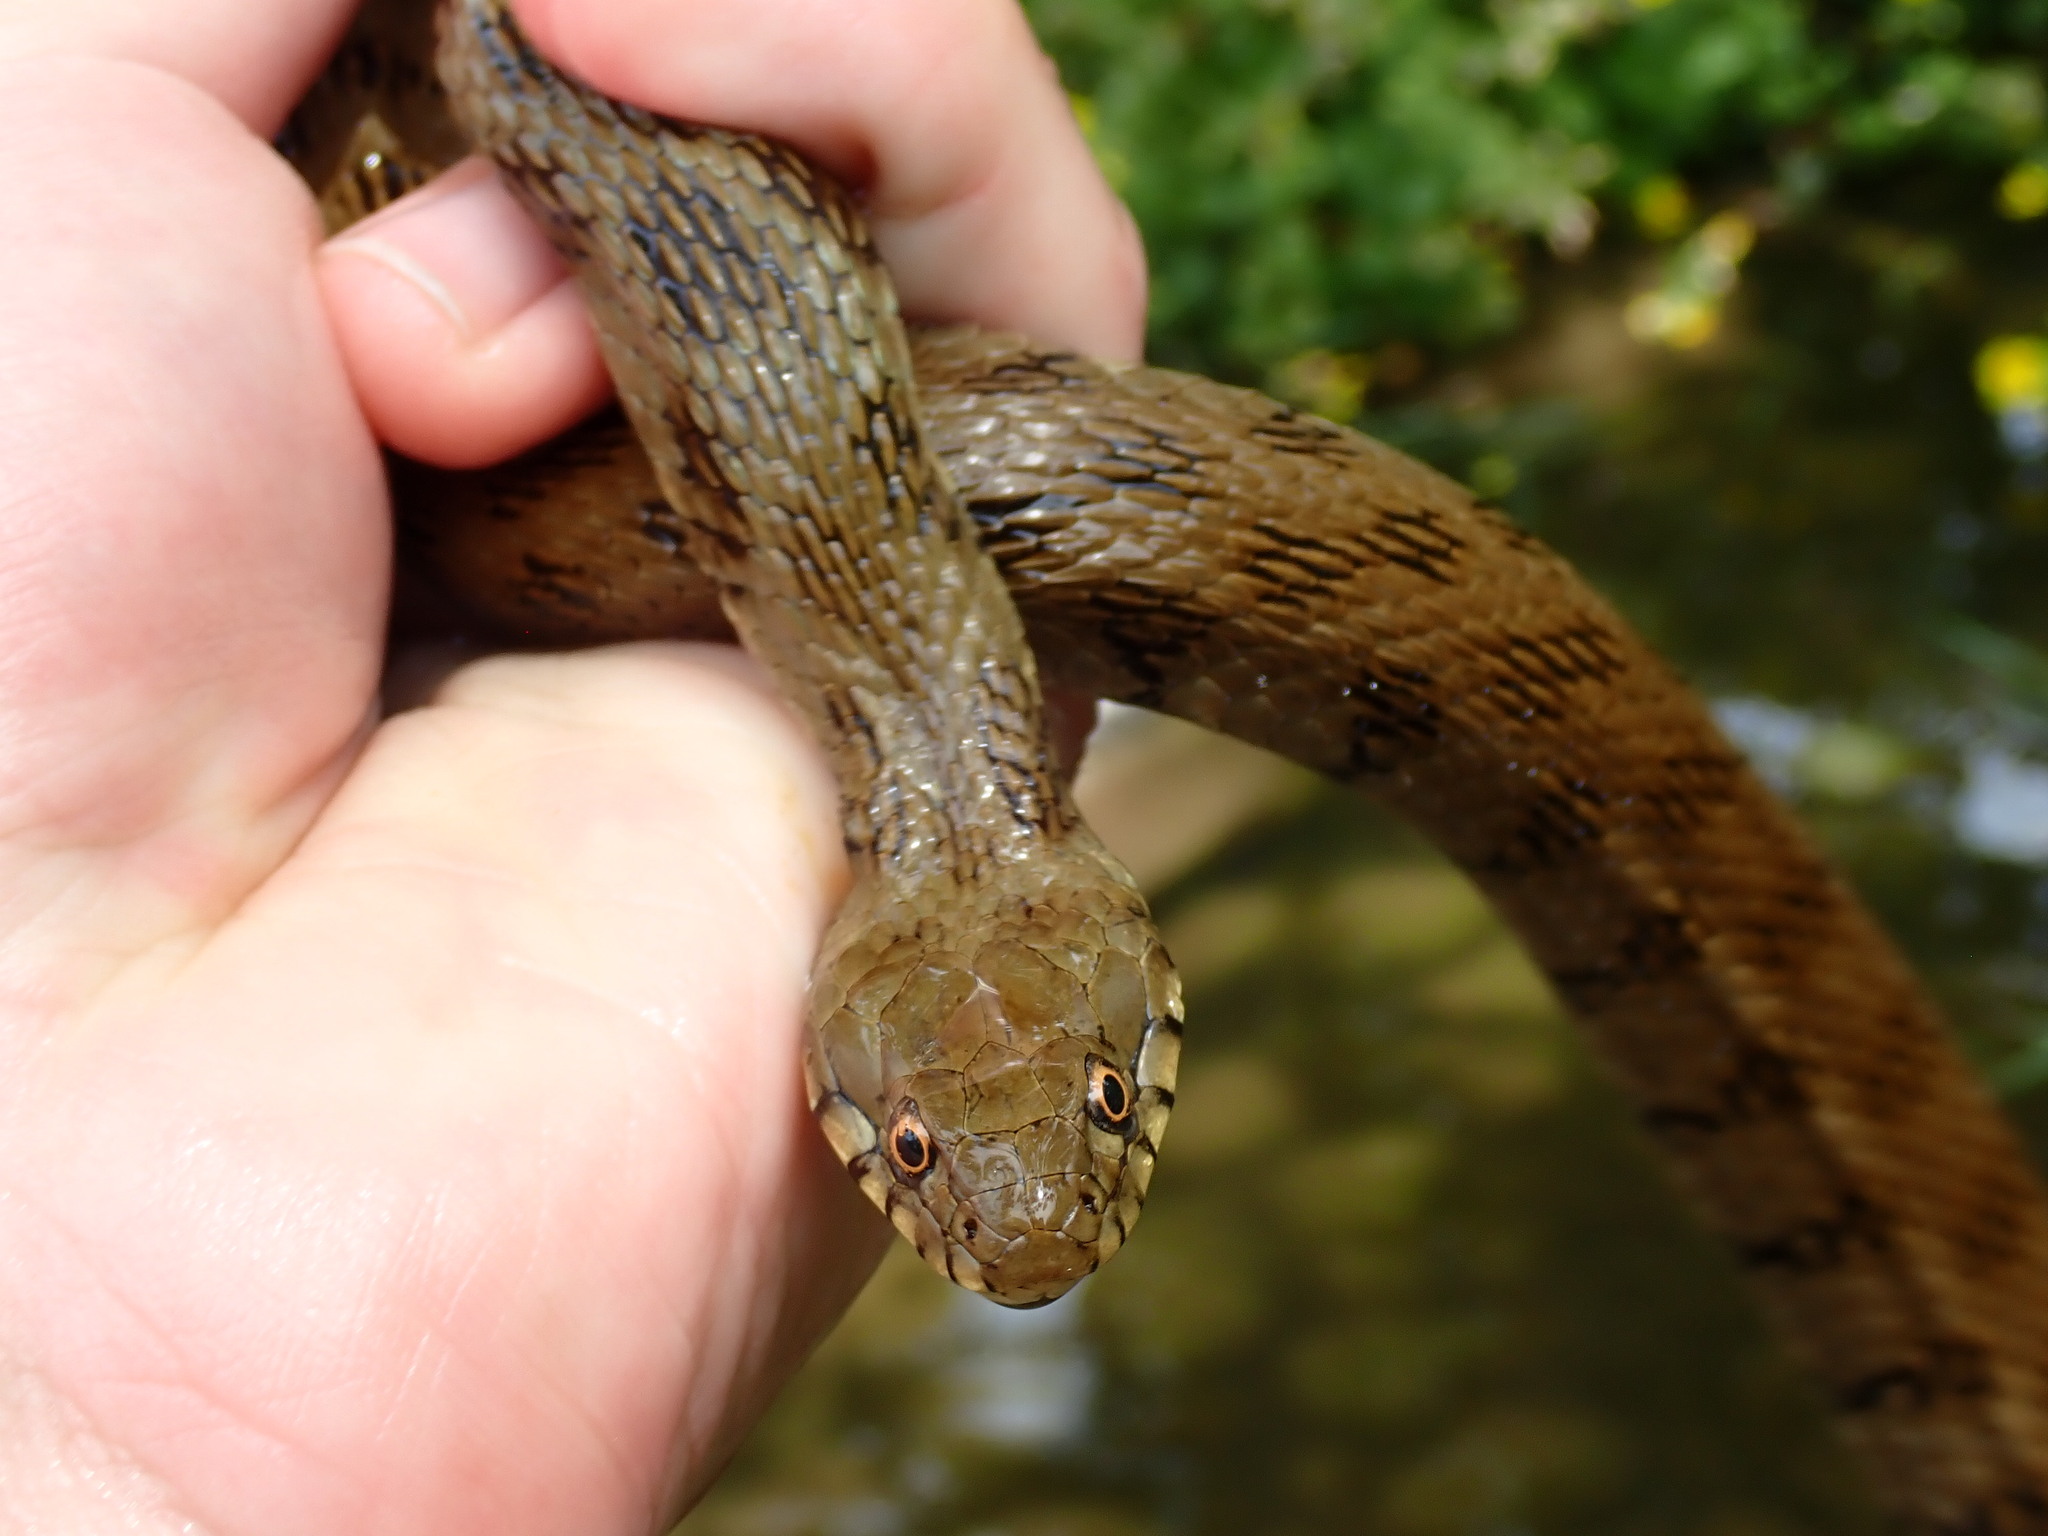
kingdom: Animalia
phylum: Chordata
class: Squamata
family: Colubridae
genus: Natrix
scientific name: Natrix maura
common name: Viperine water snake
